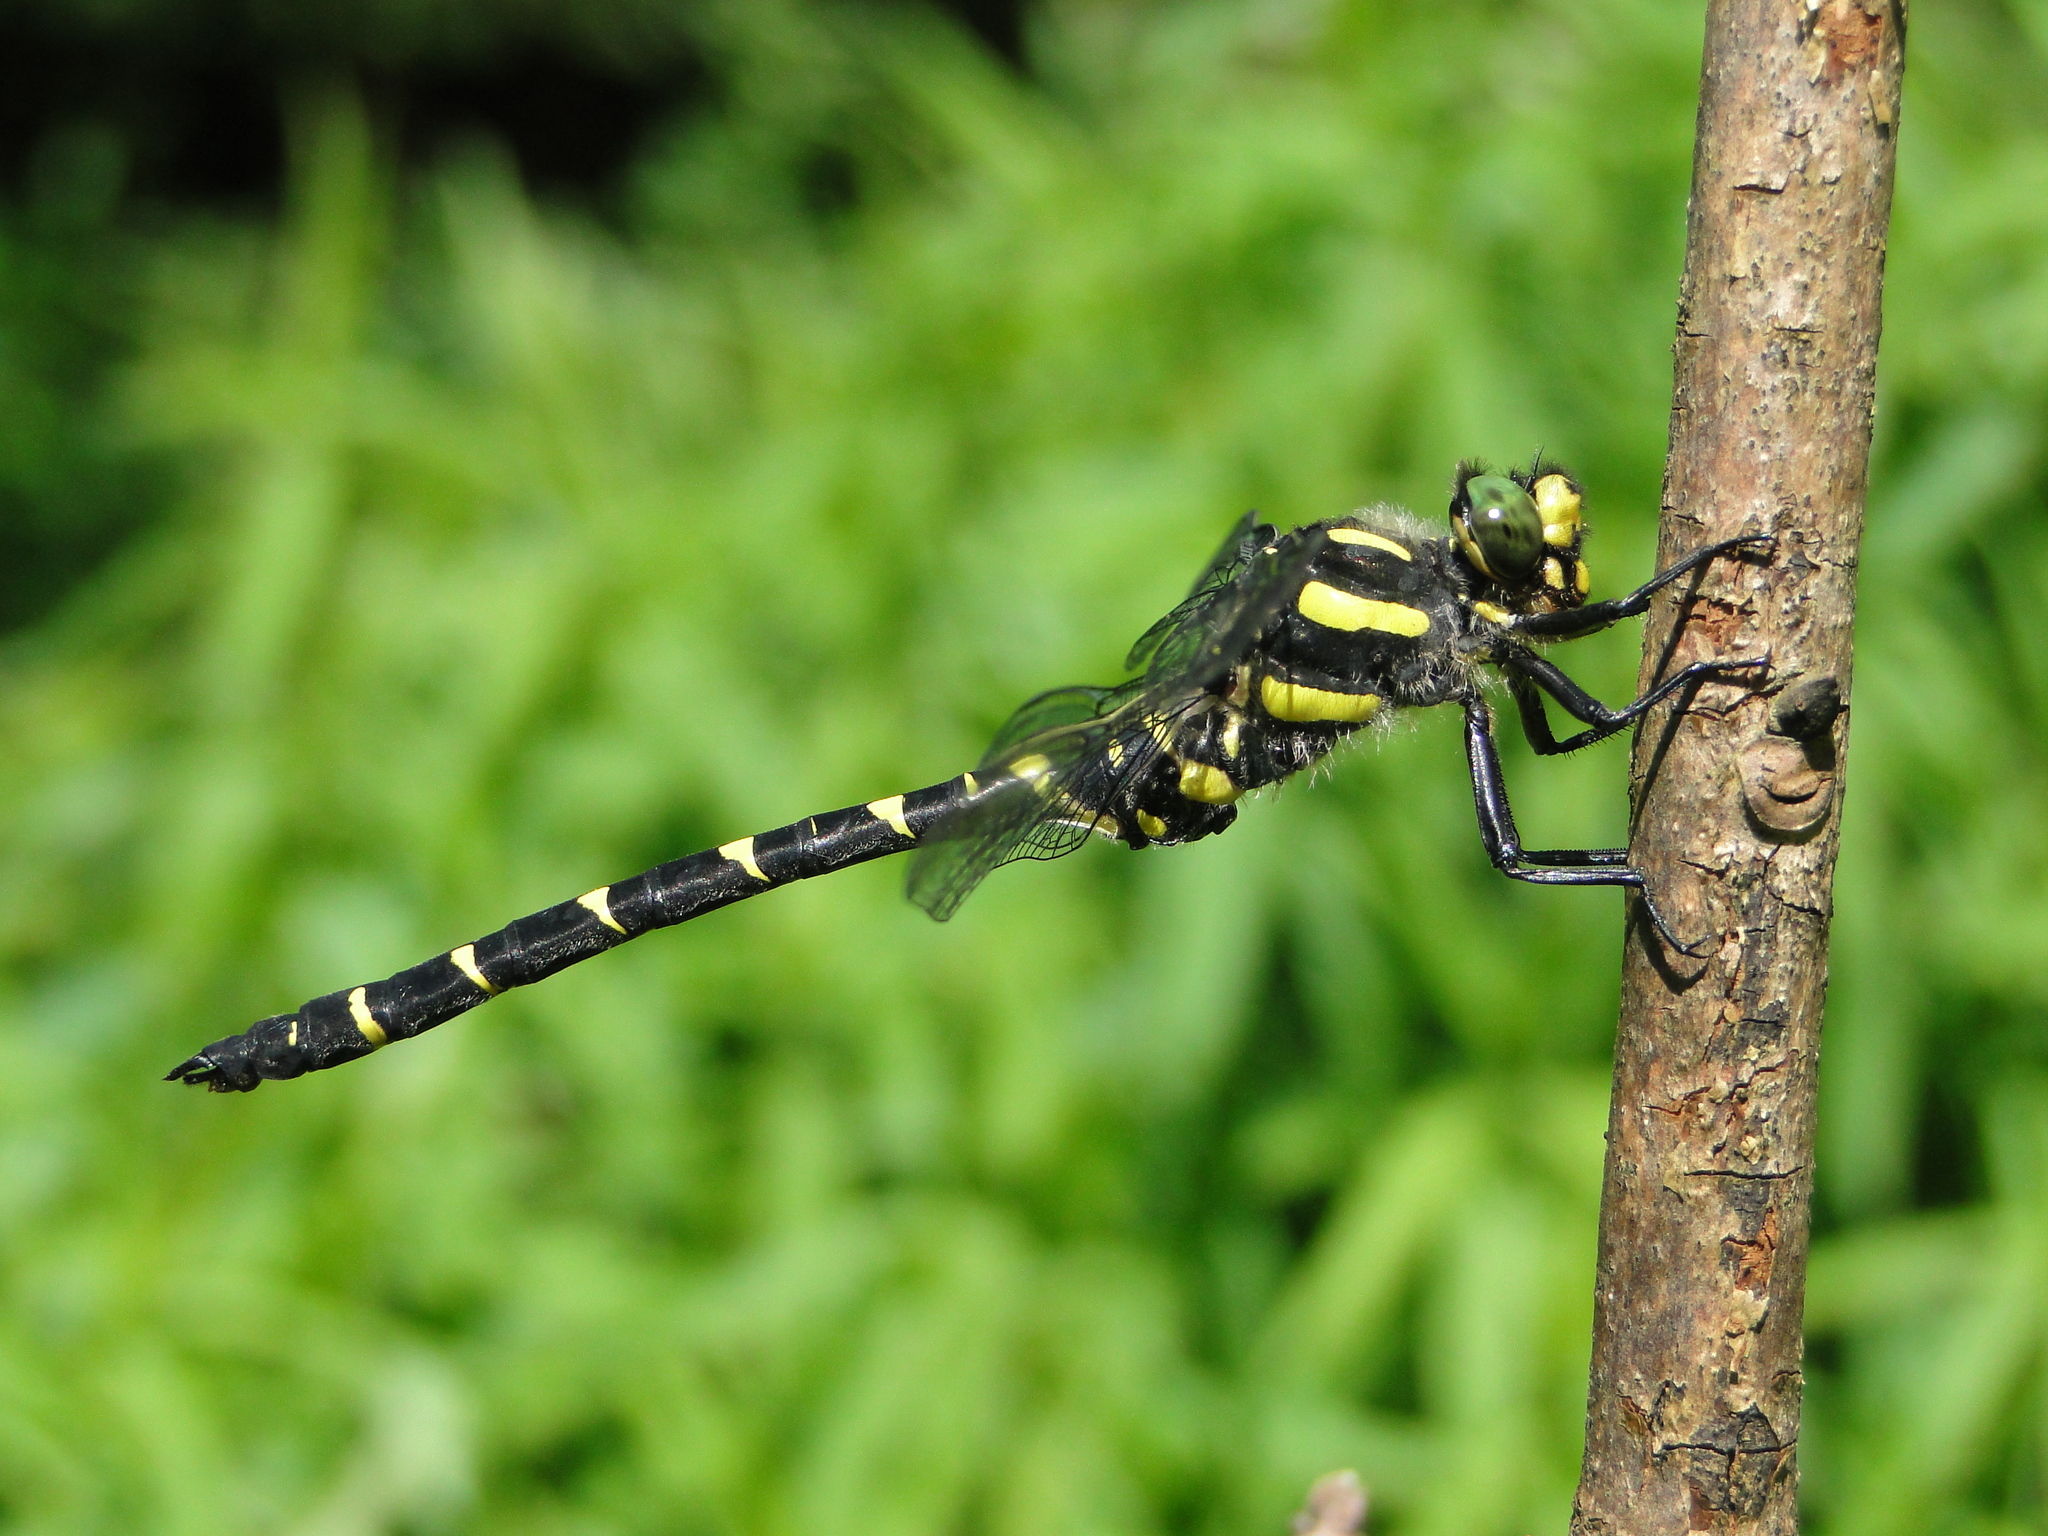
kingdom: Animalia
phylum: Arthropoda
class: Insecta
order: Odonata
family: Cordulegastridae
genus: Cordulegaster
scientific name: Cordulegaster bidentata
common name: Sombre goldenring
